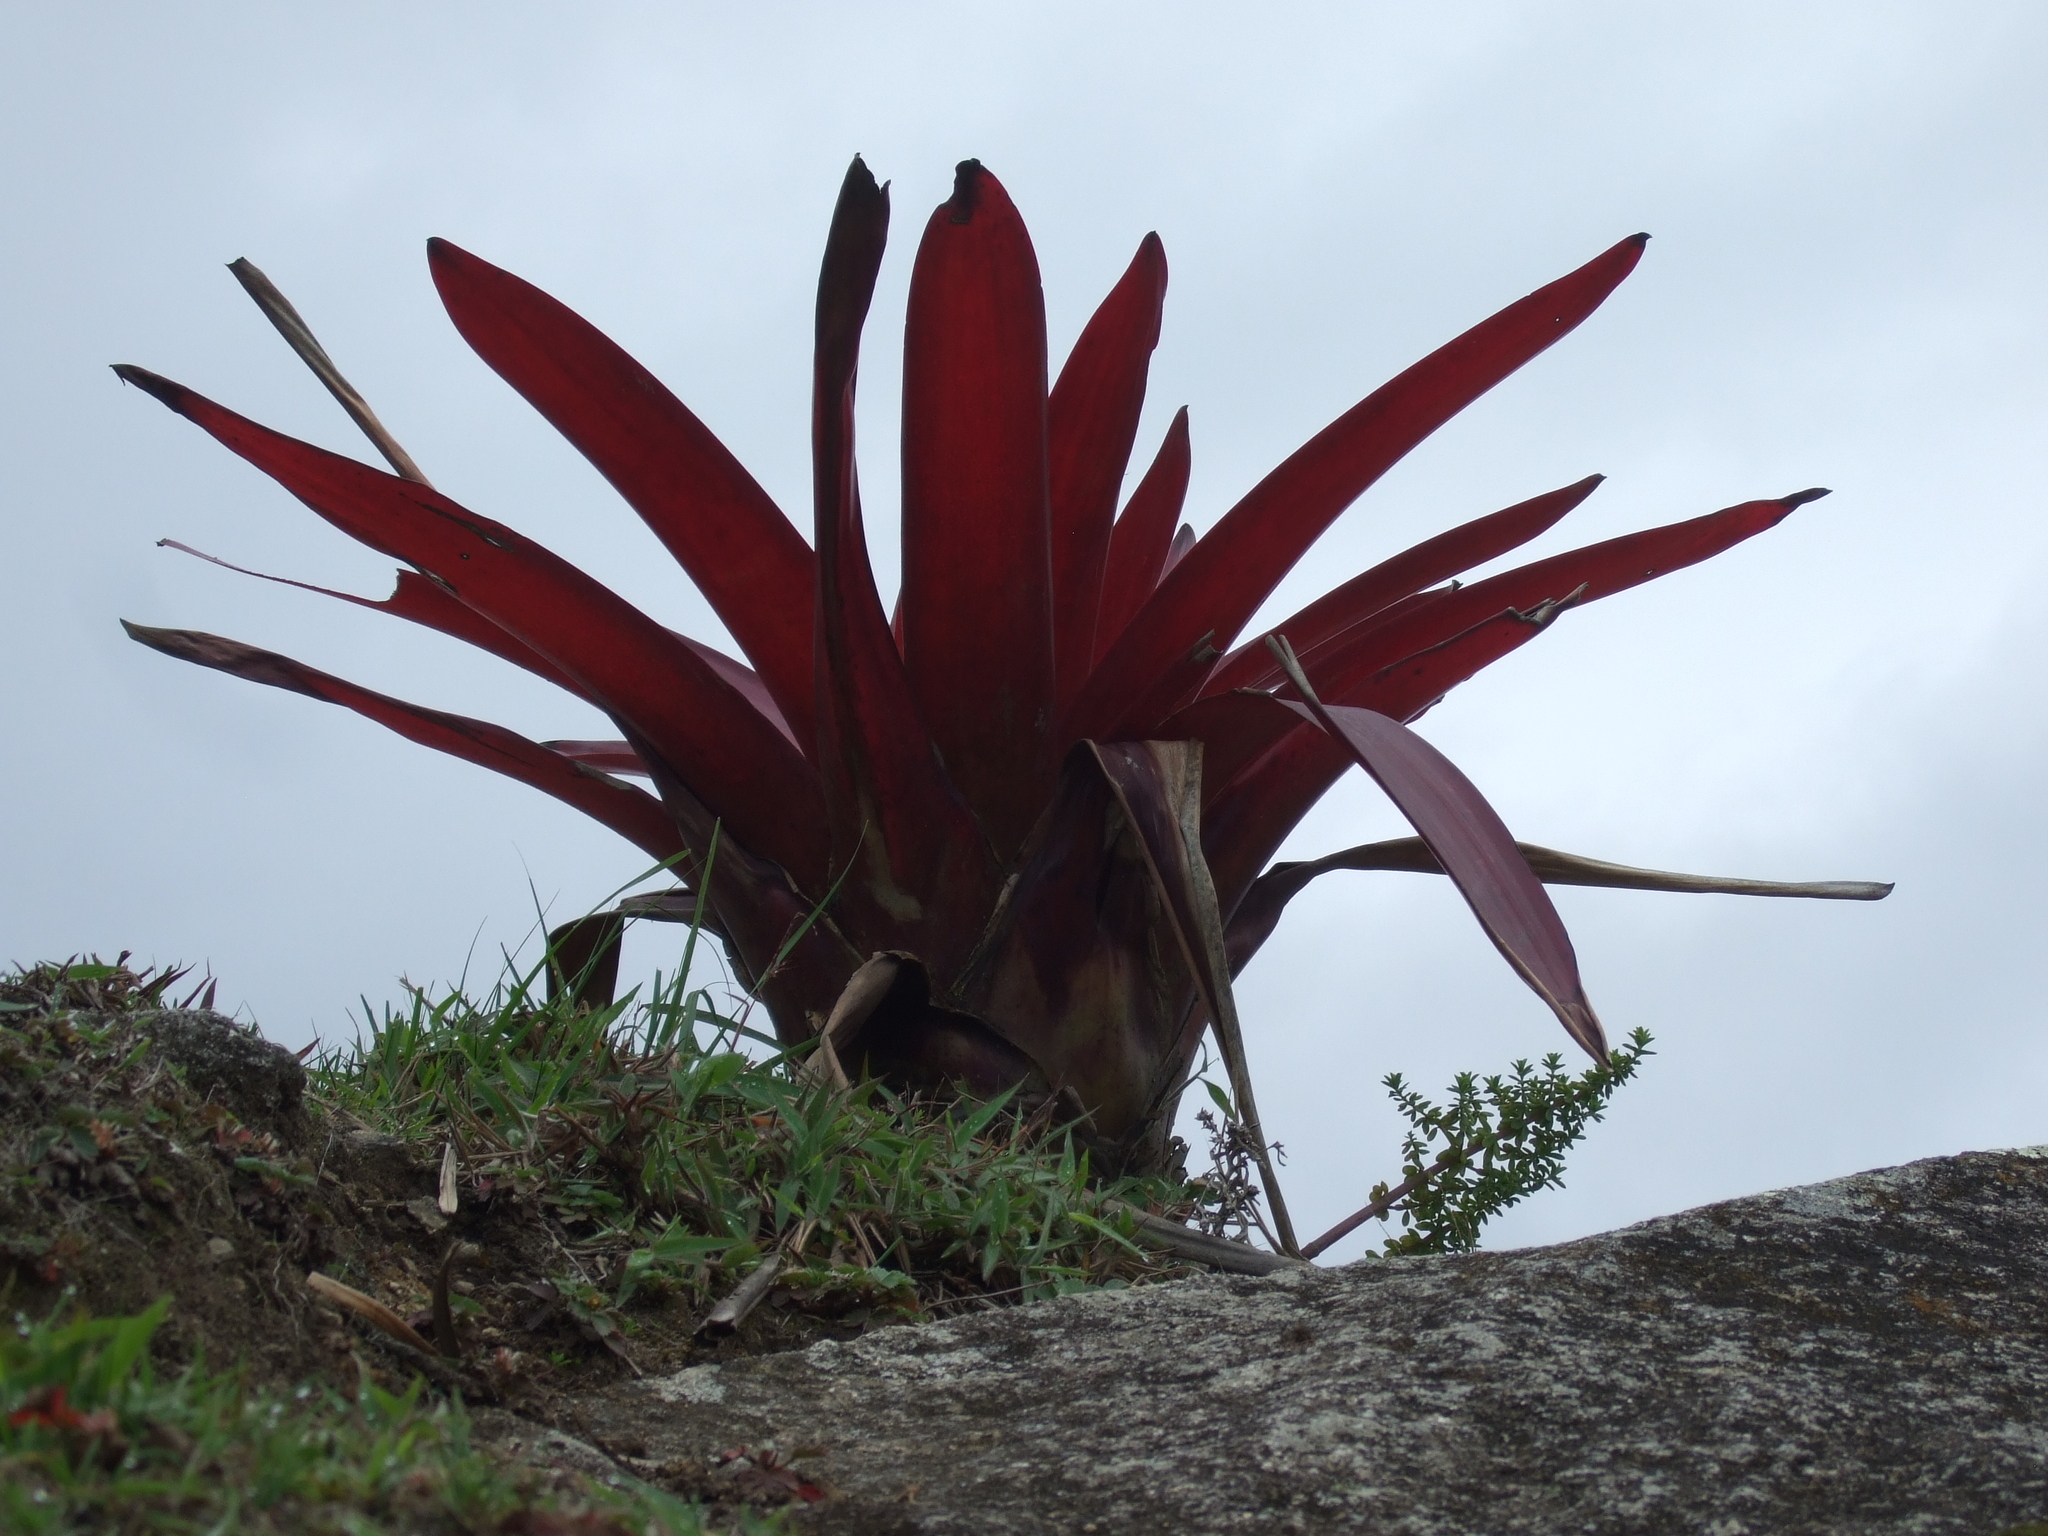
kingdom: Plantae
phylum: Tracheophyta
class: Liliopsida
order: Poales
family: Bromeliaceae
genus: Tillandsia
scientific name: Tillandsia machupicchuensis
